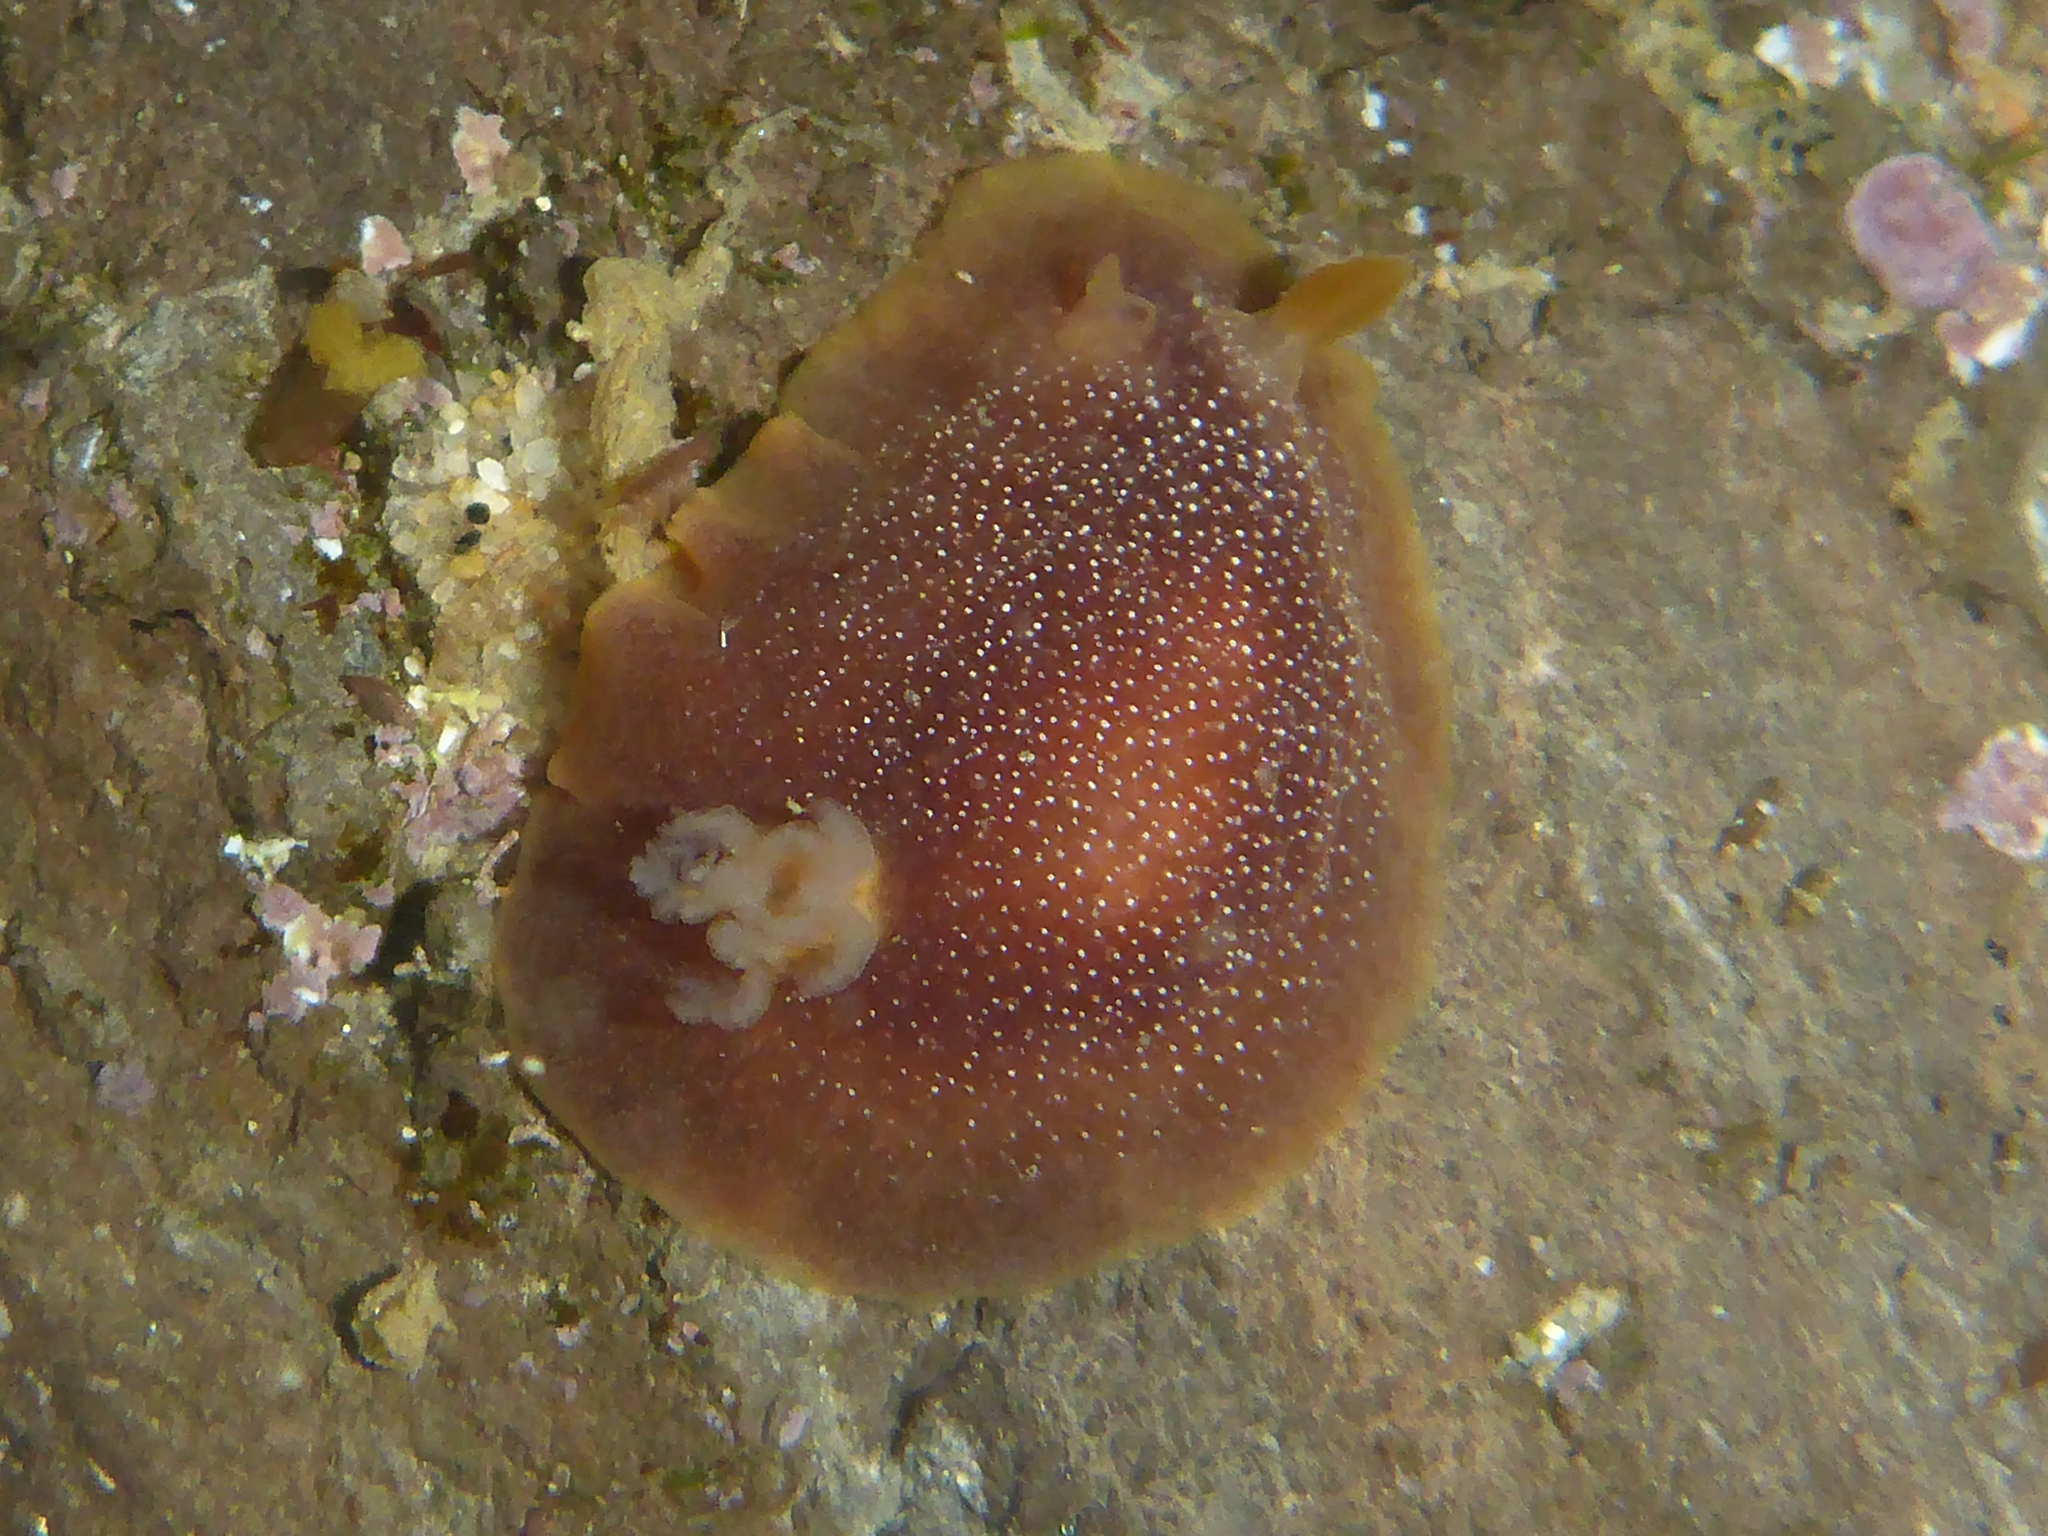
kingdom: Animalia
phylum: Mollusca
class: Gastropoda
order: Nudibranchia
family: Dendrodorididae
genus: Doriopsilla
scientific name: Doriopsilla albopunctata
